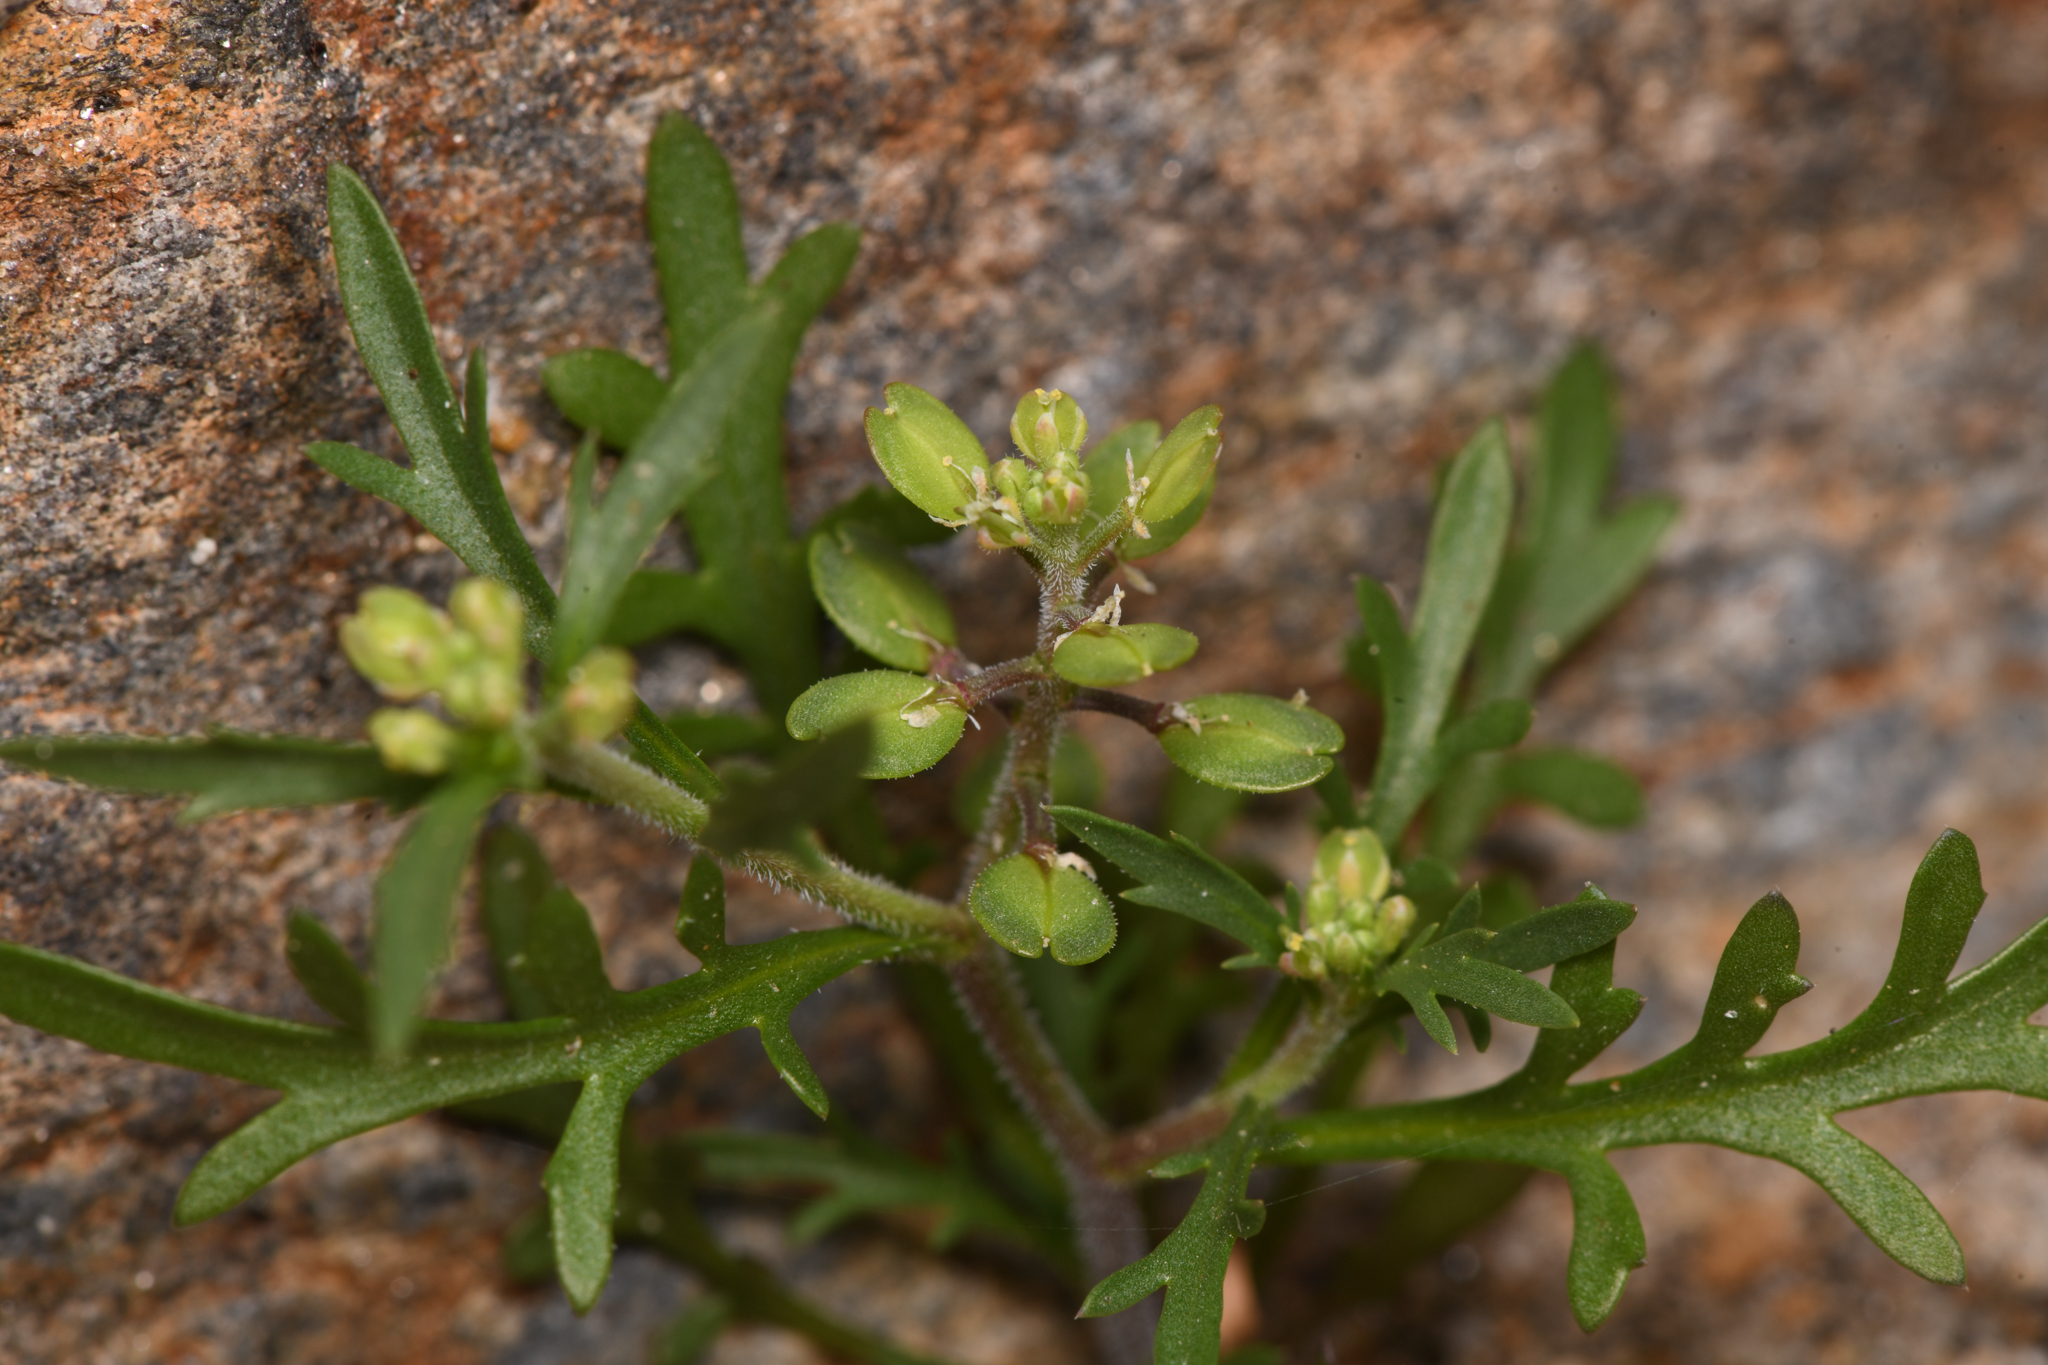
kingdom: Plantae
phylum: Tracheophyta
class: Magnoliopsida
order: Brassicales
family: Brassicaceae
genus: Lepidium
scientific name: Lepidium lasiocarpum
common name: Hairy-pod pepperwort
